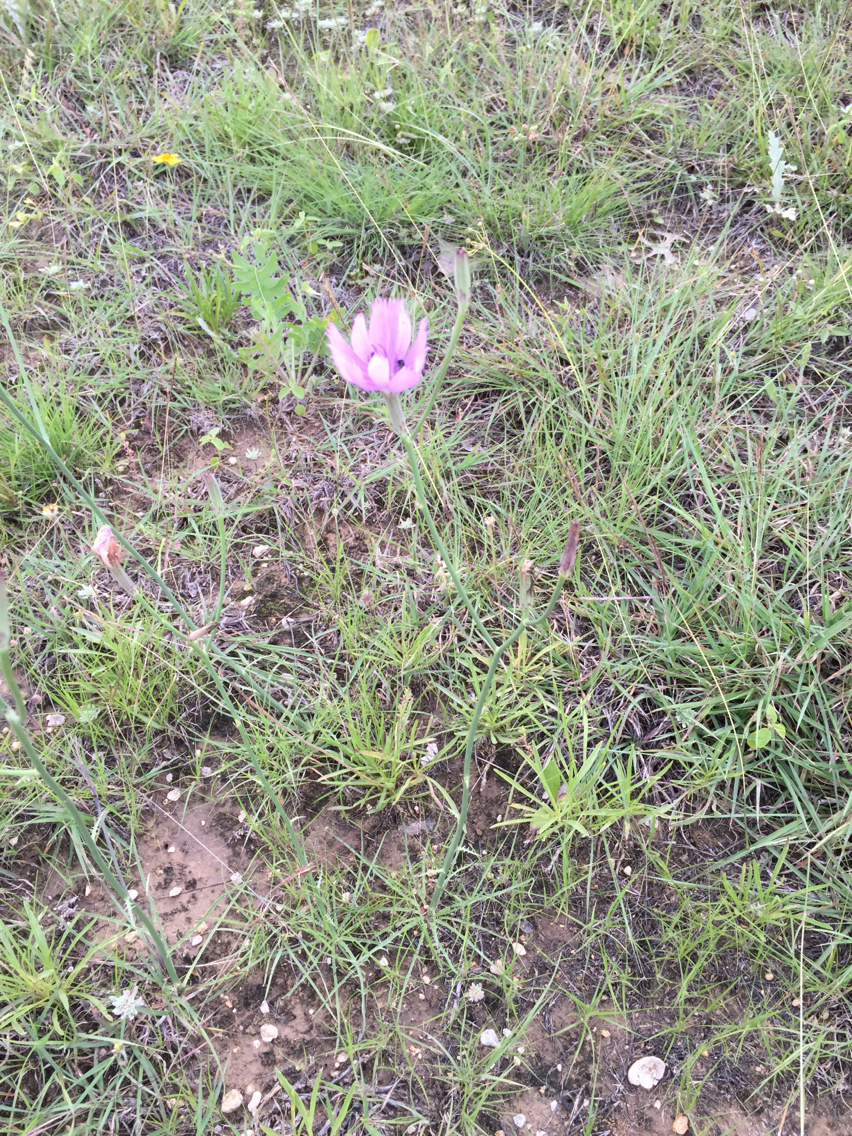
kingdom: Plantae
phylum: Tracheophyta
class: Magnoliopsida
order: Asterales
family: Asteraceae
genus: Lygodesmia
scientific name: Lygodesmia texana
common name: Texas skeleton-plant
